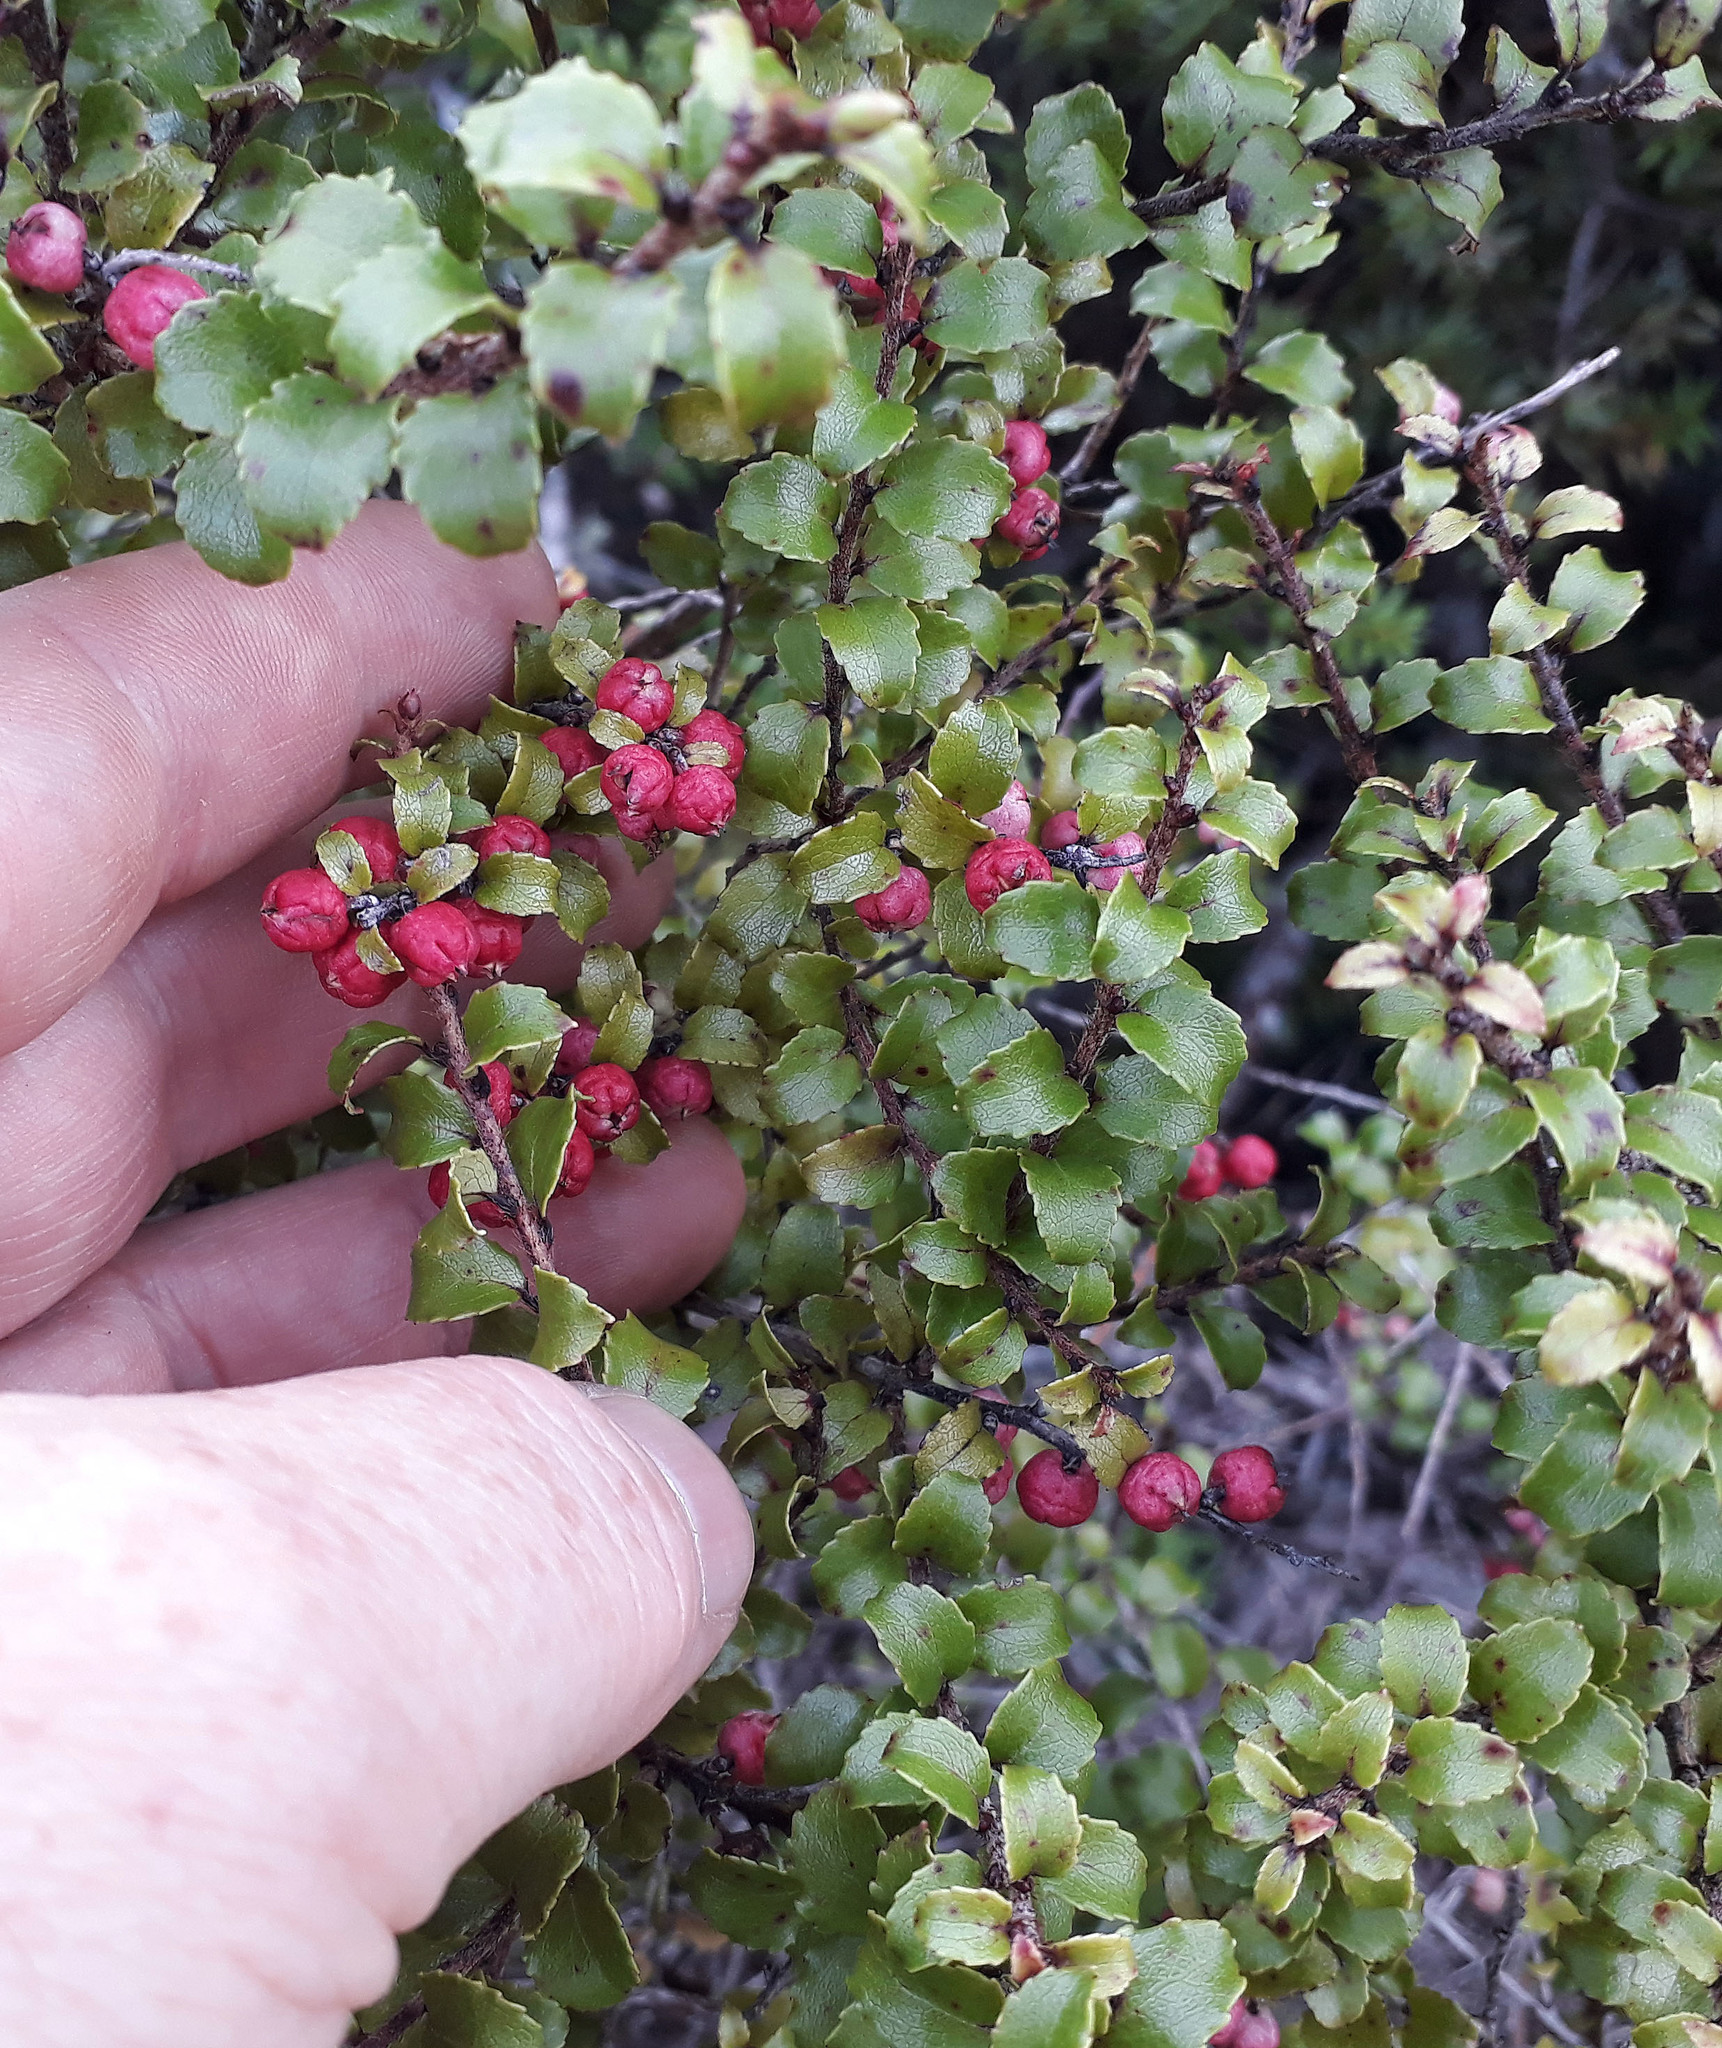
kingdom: Plantae
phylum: Tracheophyta
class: Magnoliopsida
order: Ericales
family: Ericaceae
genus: Gaultheria
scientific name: Gaultheria antipoda
